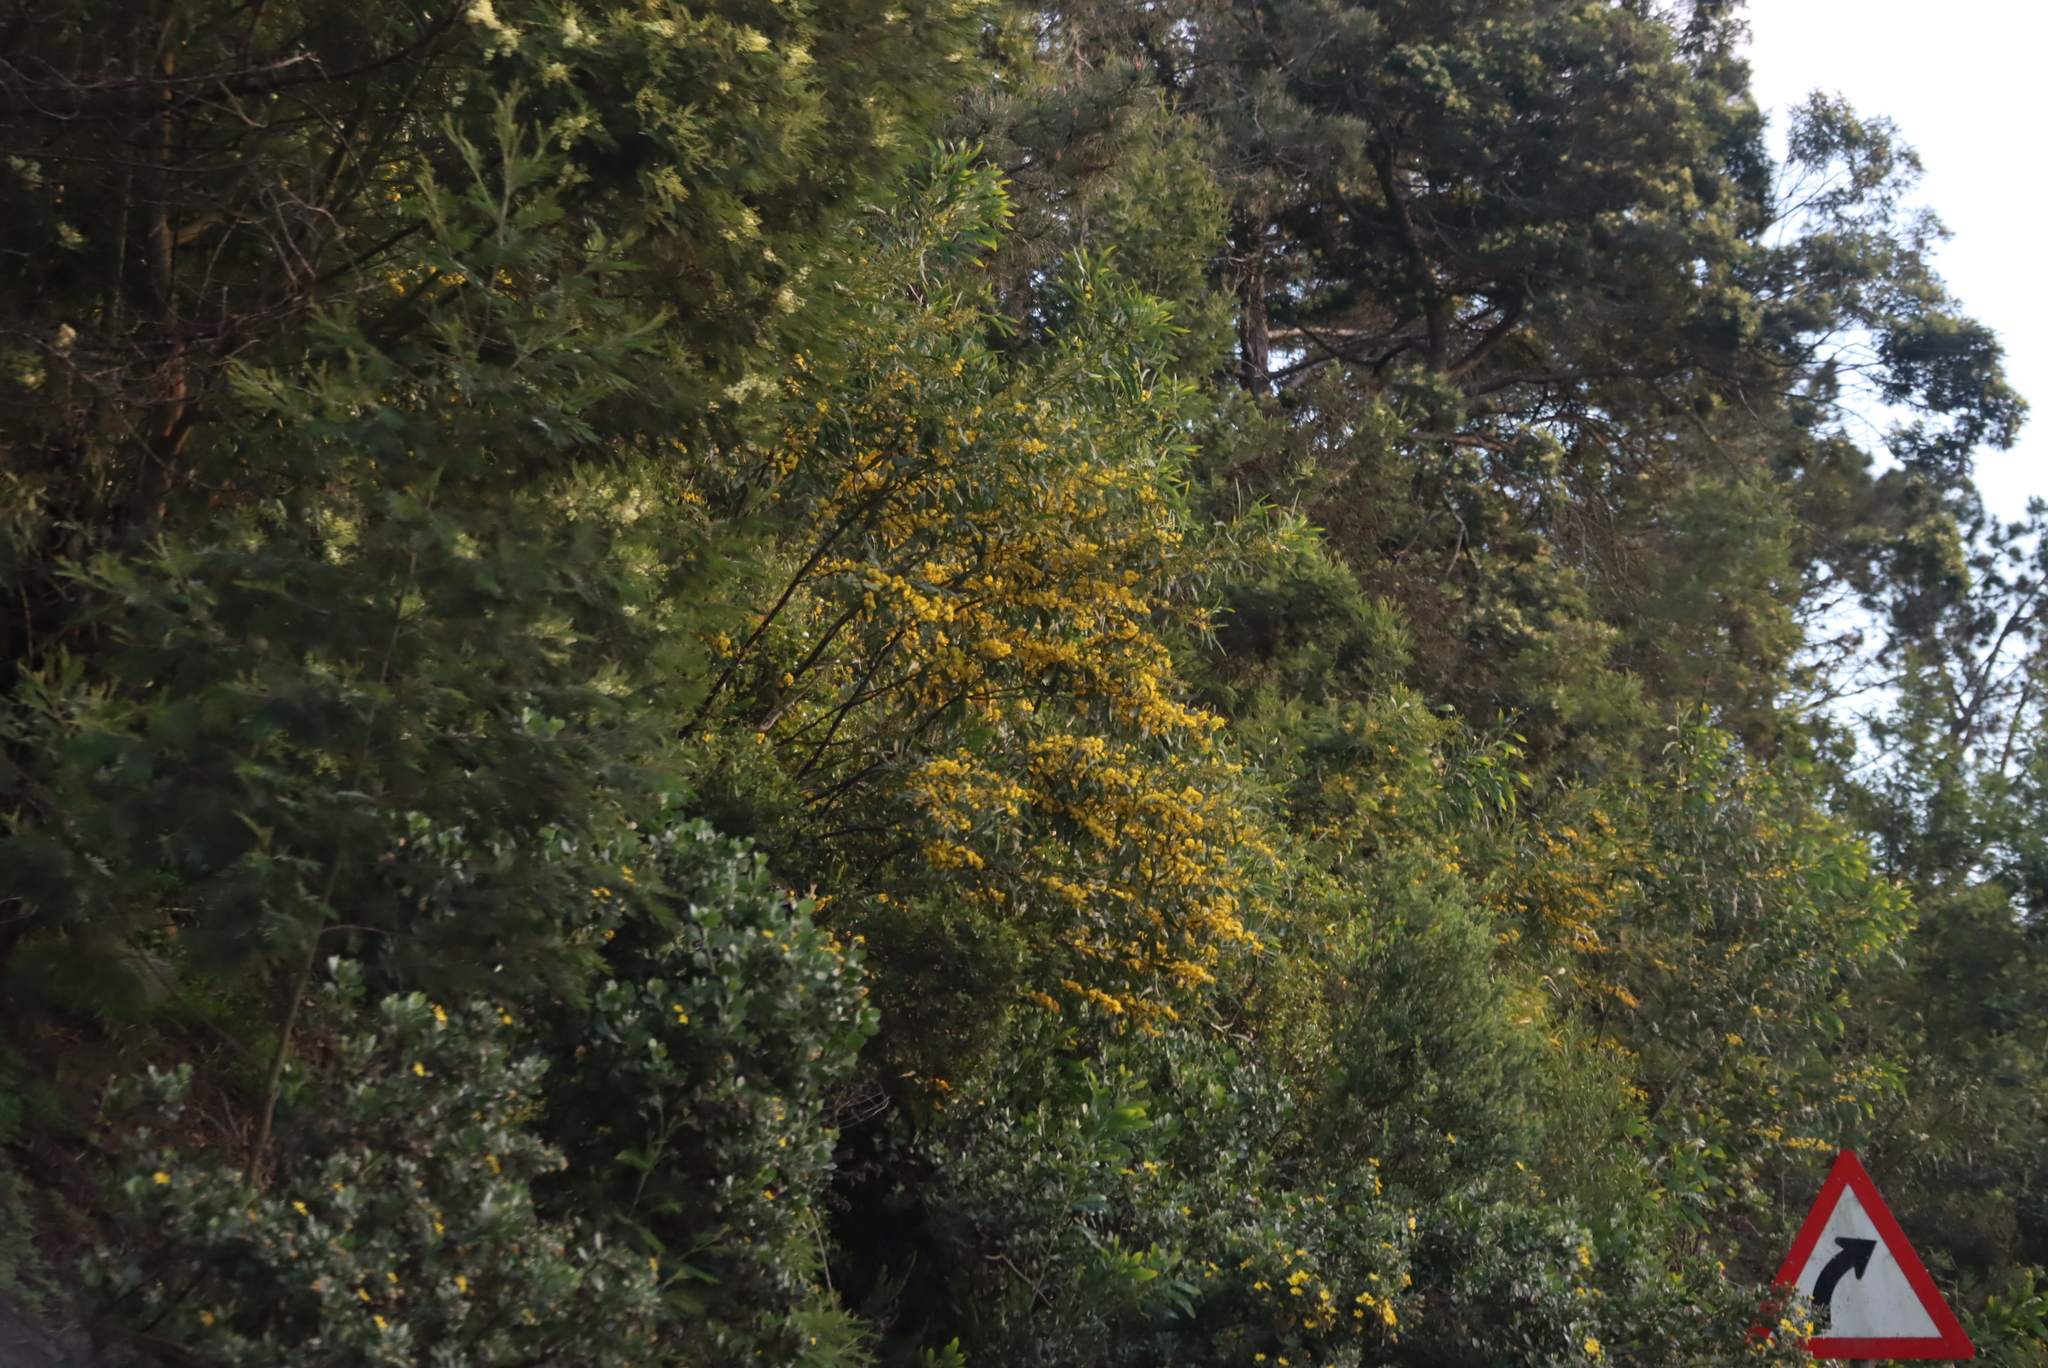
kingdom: Plantae
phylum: Tracheophyta
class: Magnoliopsida
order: Fabales
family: Fabaceae
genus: Acacia
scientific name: Acacia saligna
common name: Orange wattle
